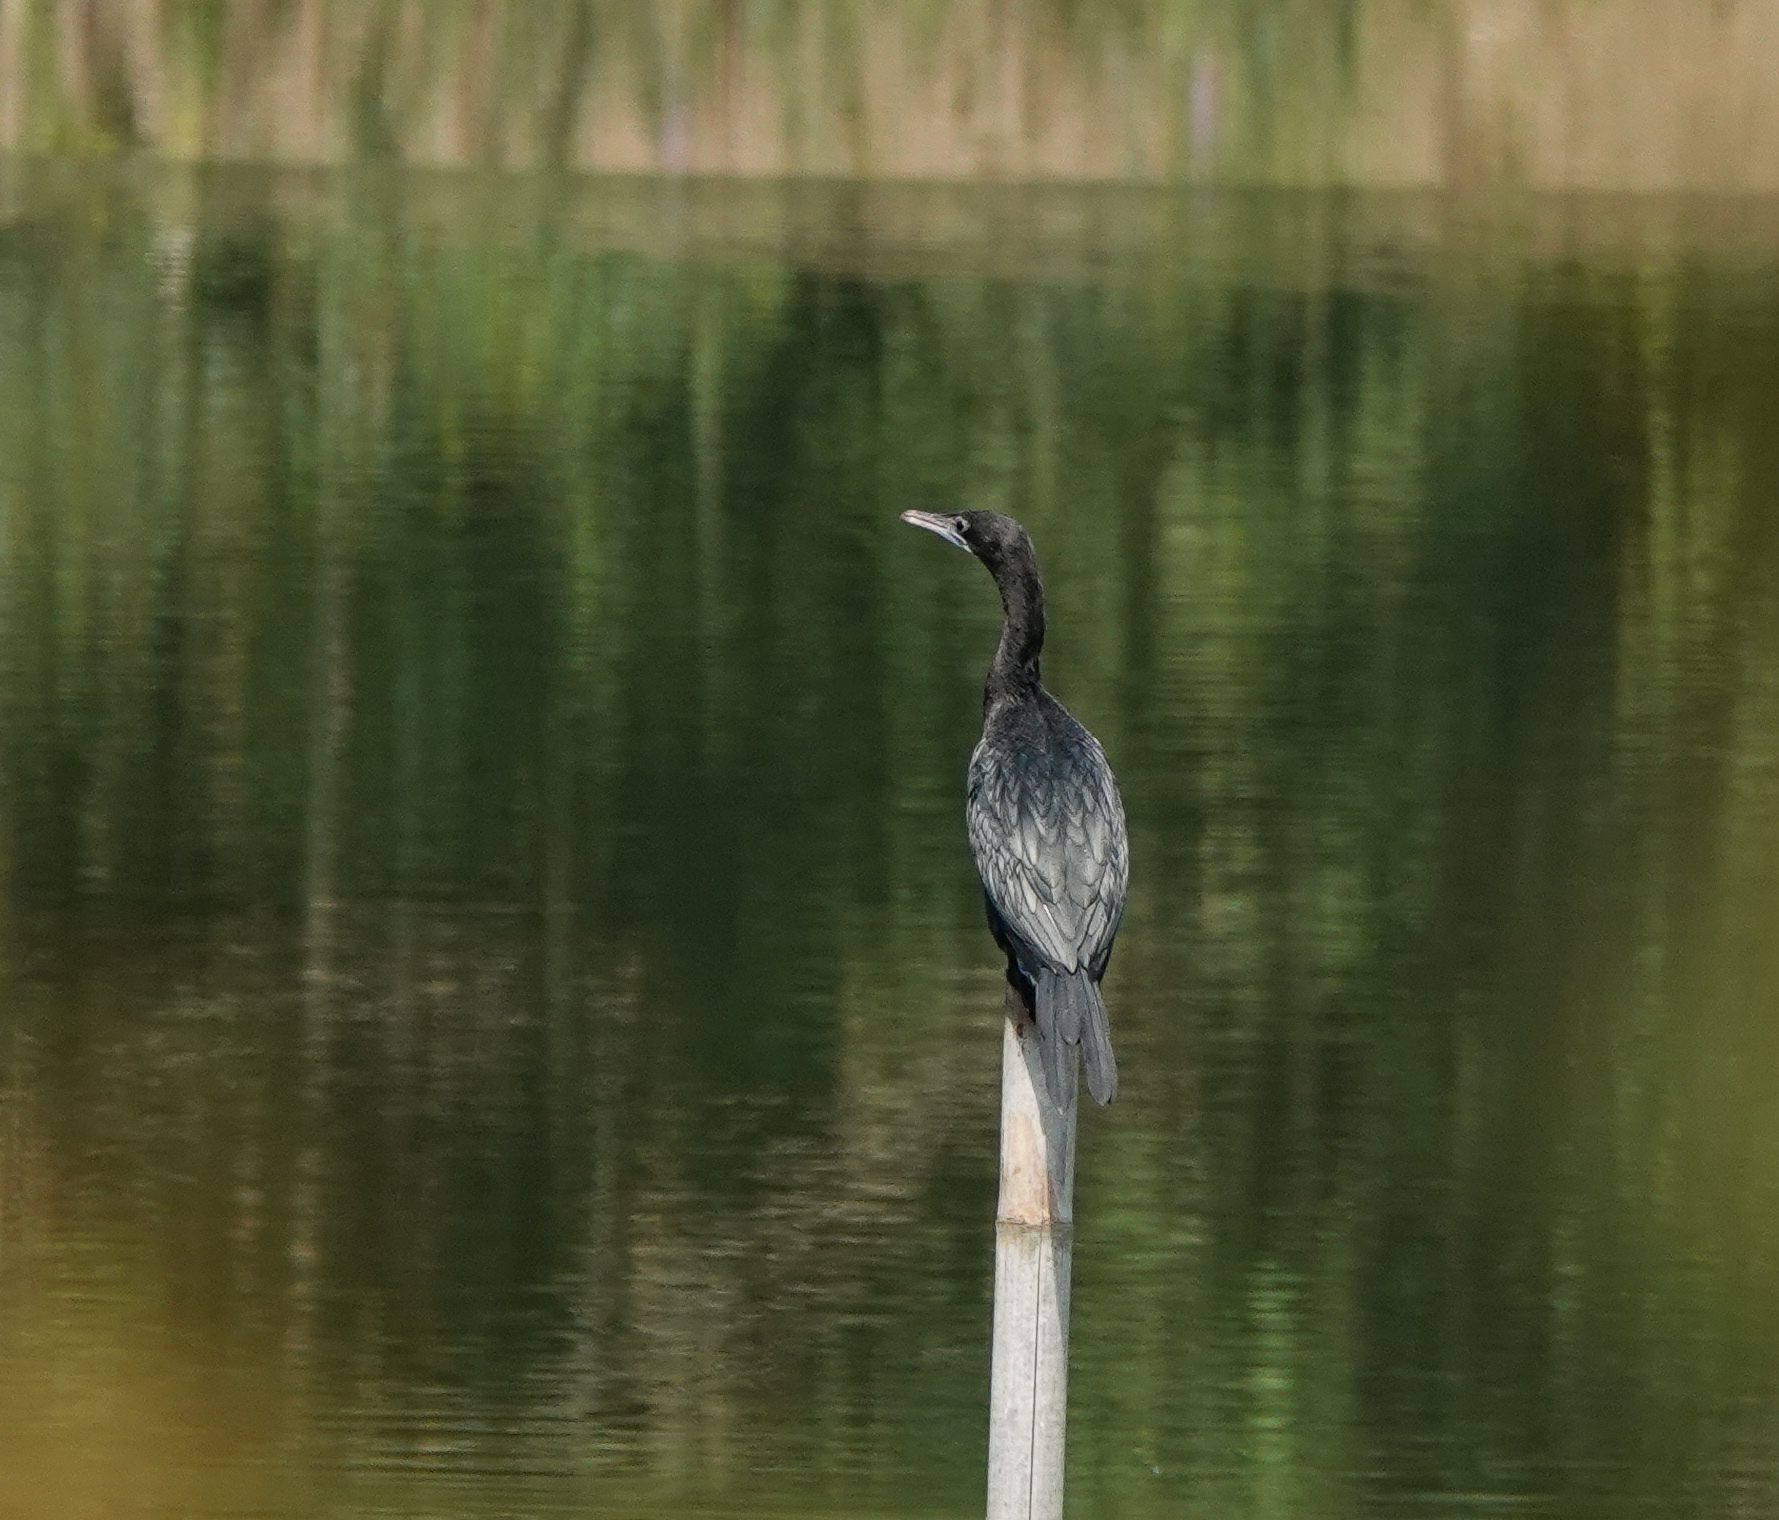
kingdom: Animalia
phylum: Chordata
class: Aves
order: Suliformes
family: Phalacrocoracidae
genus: Microcarbo
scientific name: Microcarbo niger
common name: Little cormorant
